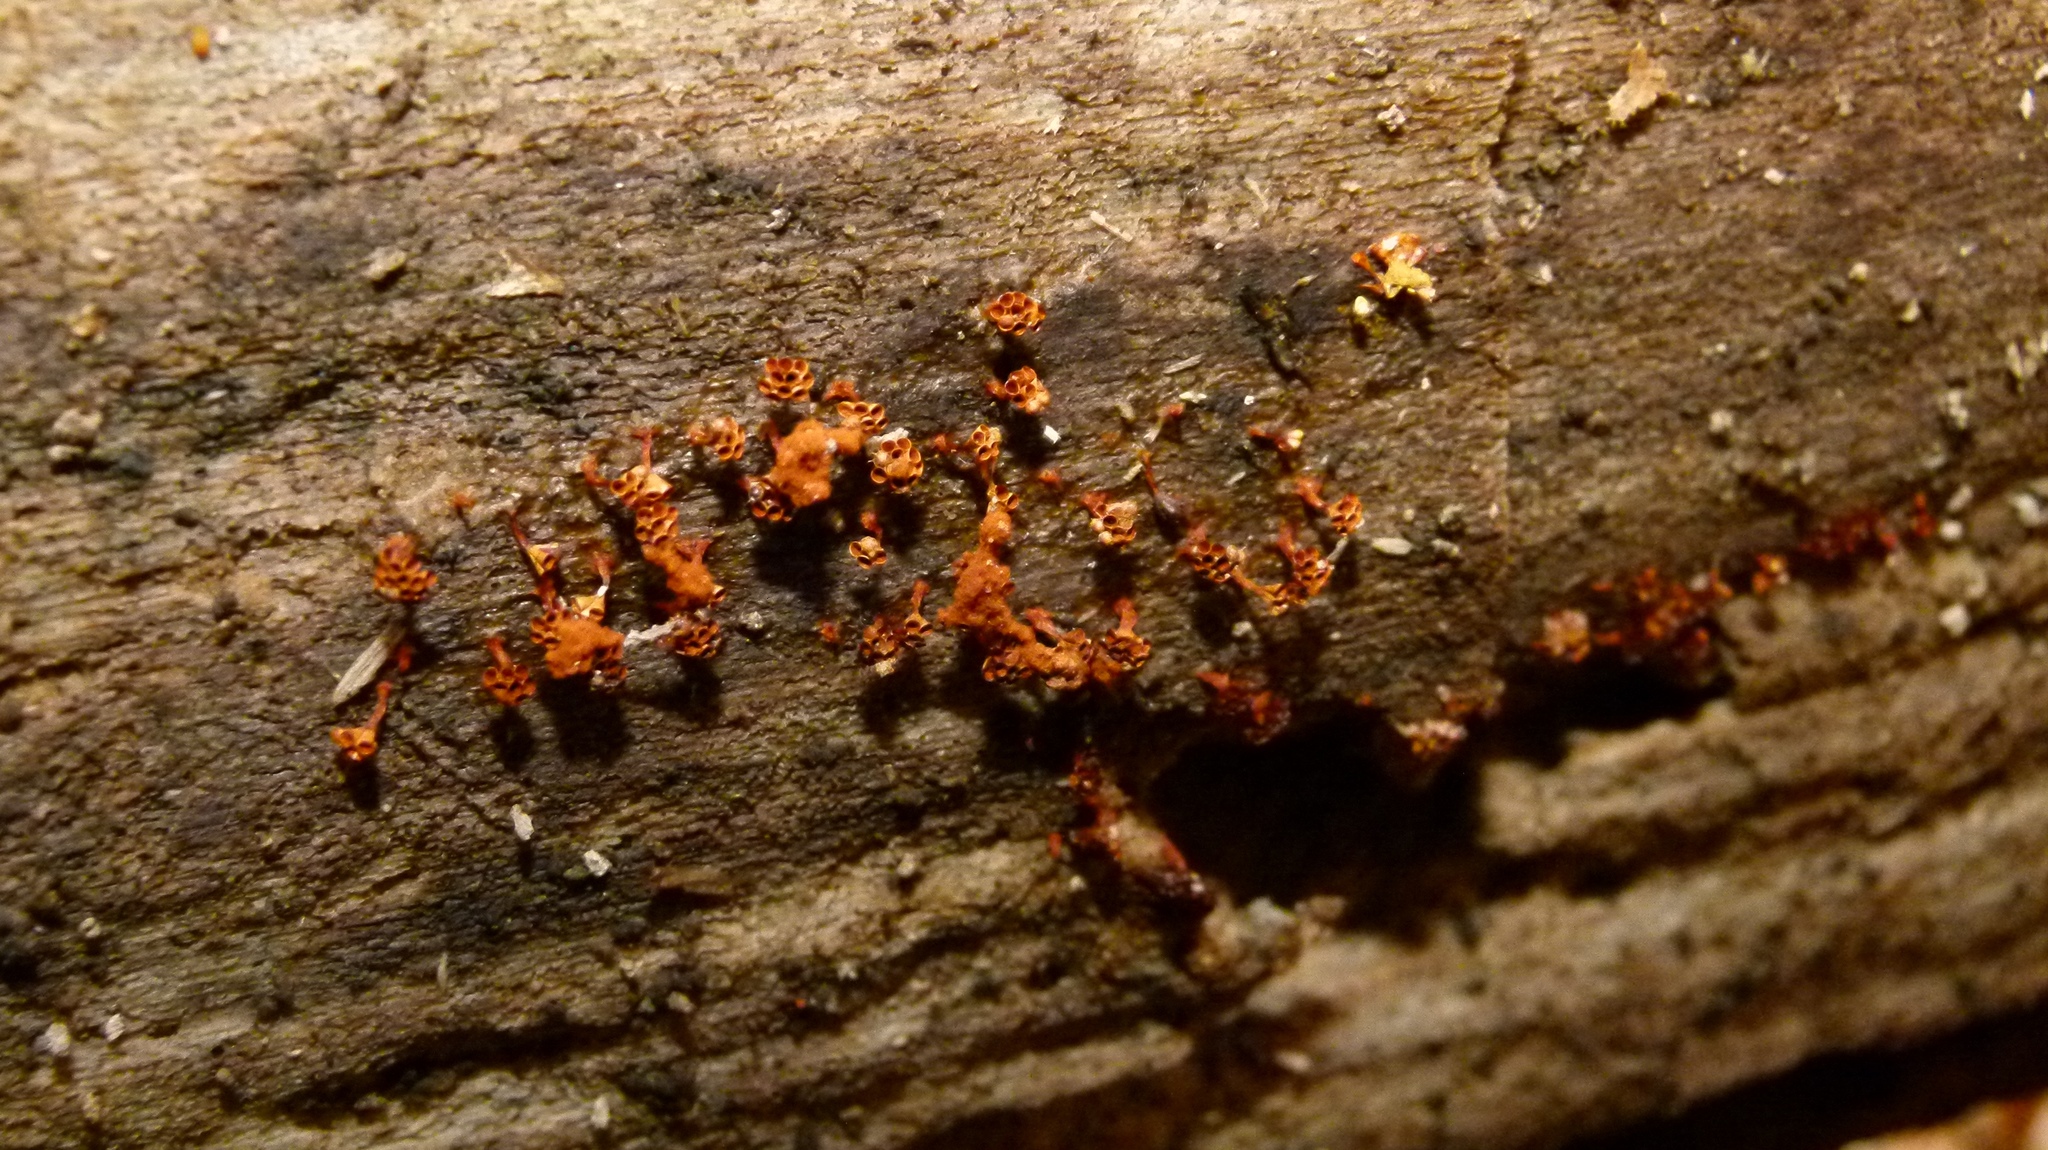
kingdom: Protozoa
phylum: Mycetozoa
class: Myxomycetes
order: Trichiales
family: Trichiaceae
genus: Metatrichia
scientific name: Metatrichia vesparia
